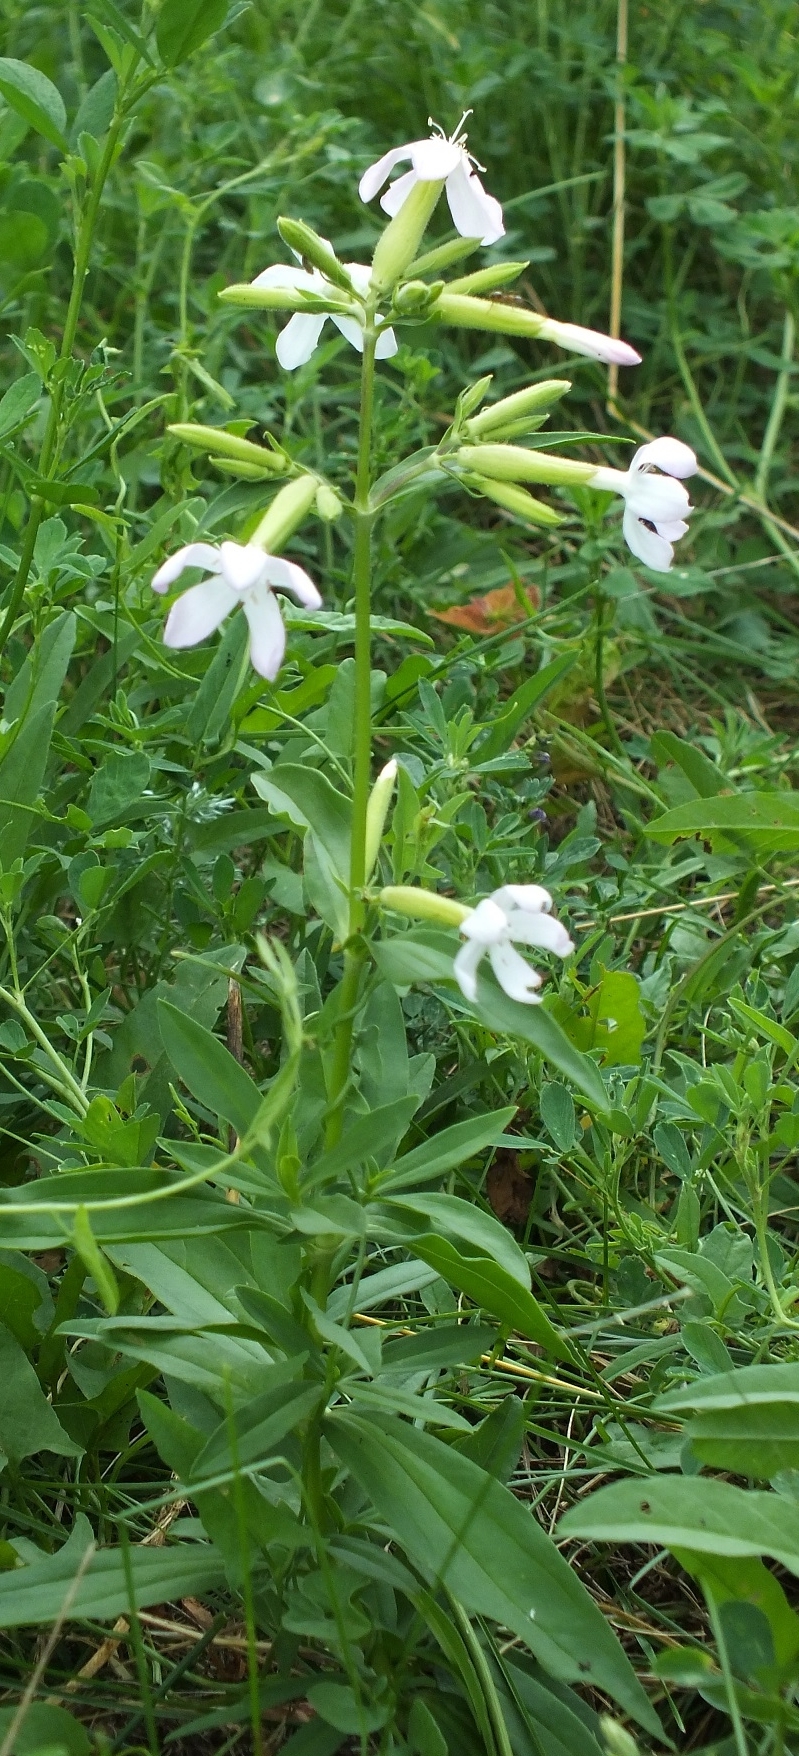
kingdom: Plantae
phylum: Tracheophyta
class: Magnoliopsida
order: Caryophyllales
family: Caryophyllaceae
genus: Saponaria
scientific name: Saponaria officinalis
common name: Soapwort
